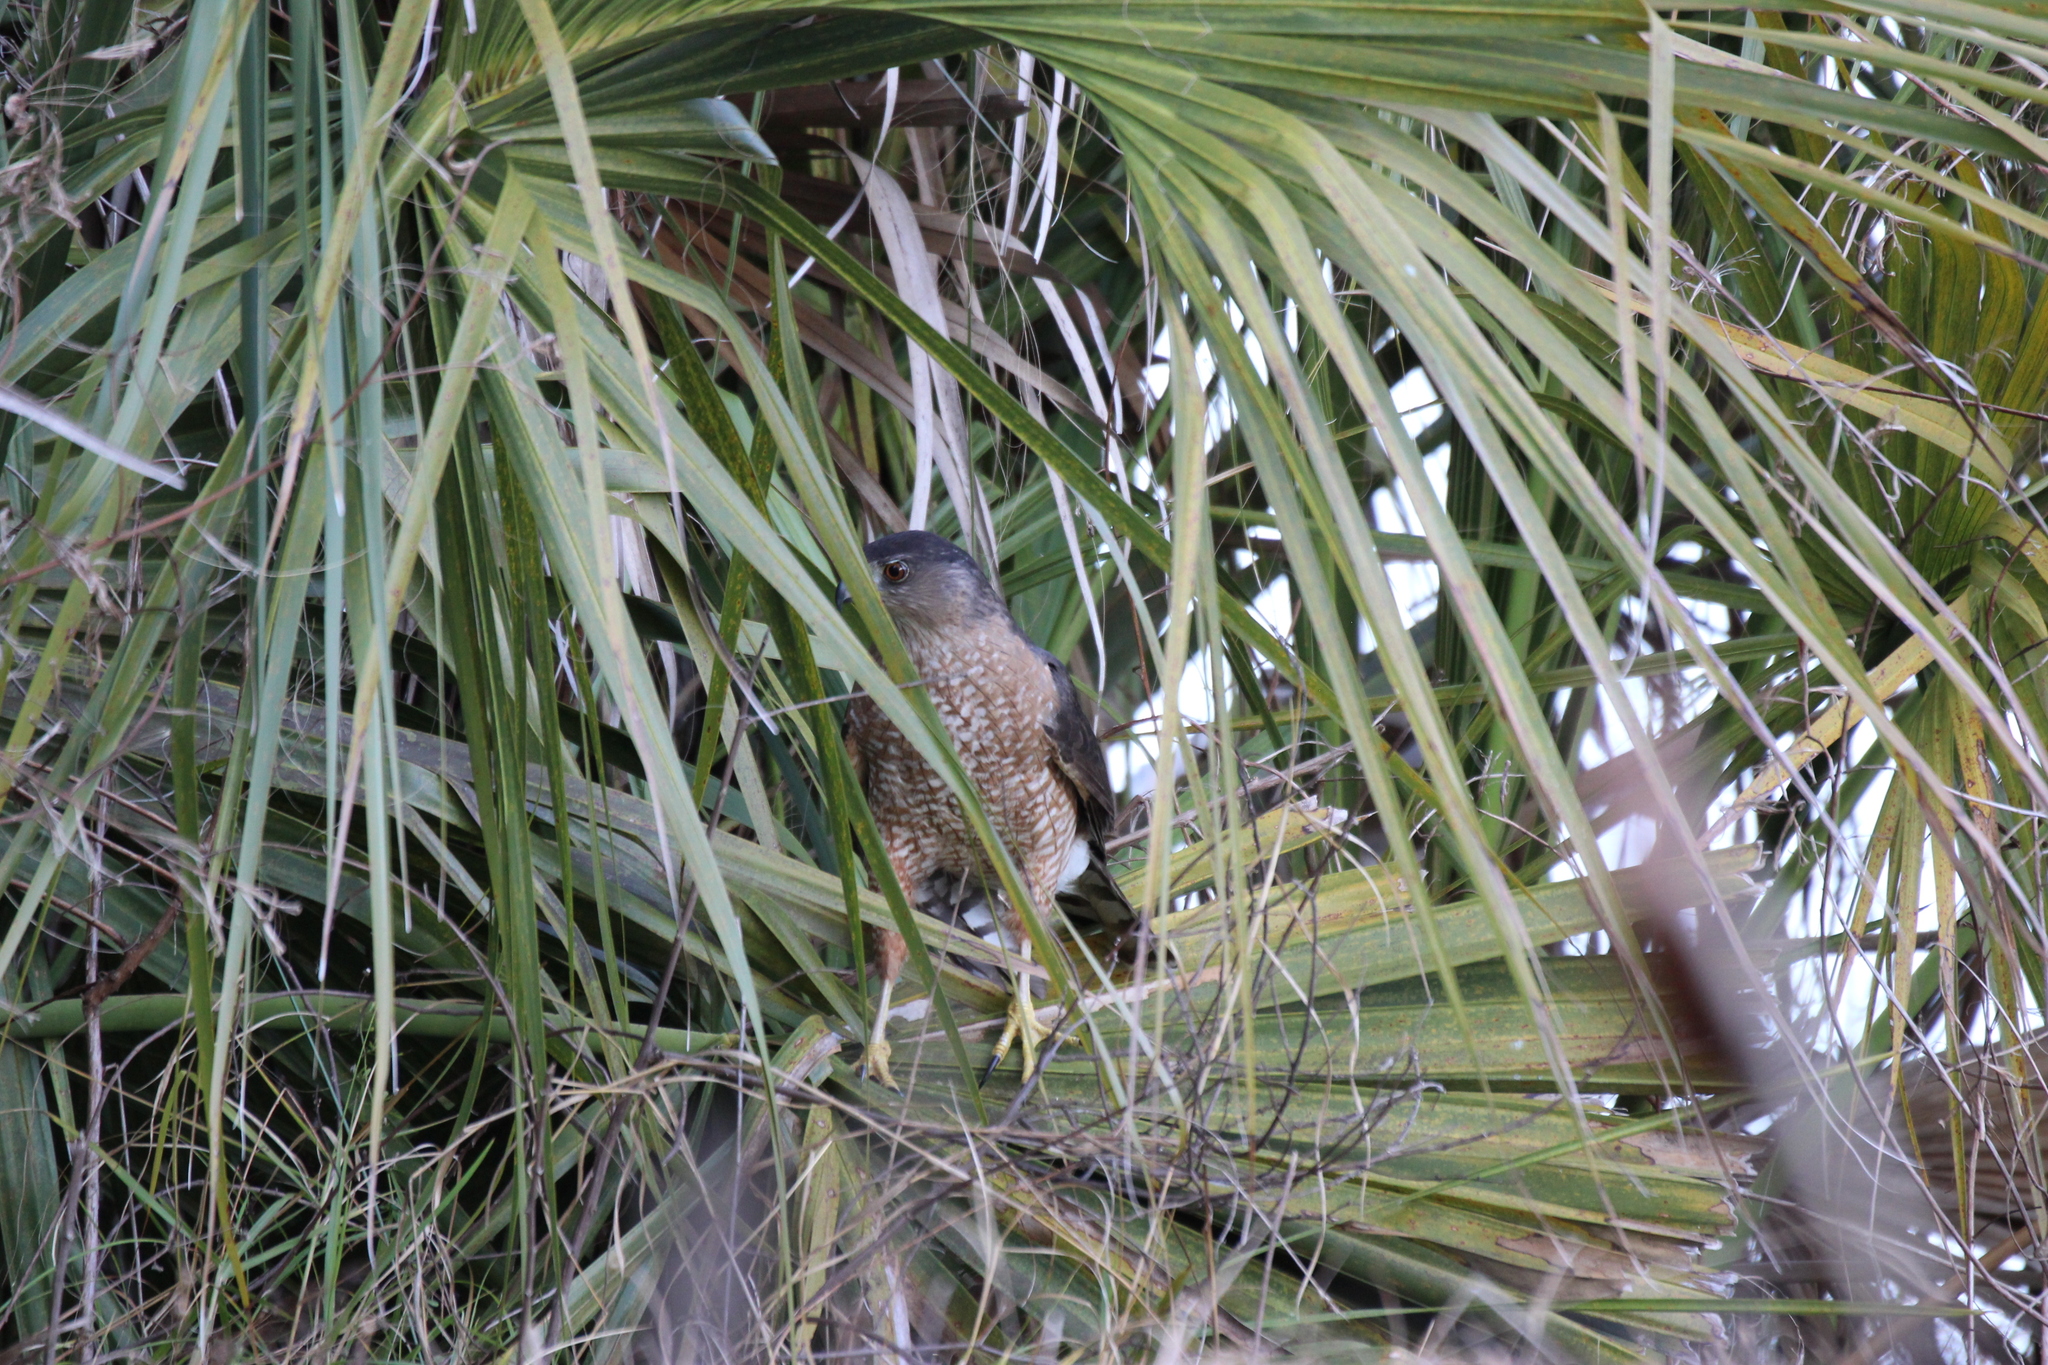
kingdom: Animalia
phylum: Chordata
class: Aves
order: Accipitriformes
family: Accipitridae
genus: Accipiter
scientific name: Accipiter cooperii
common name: Cooper's hawk
